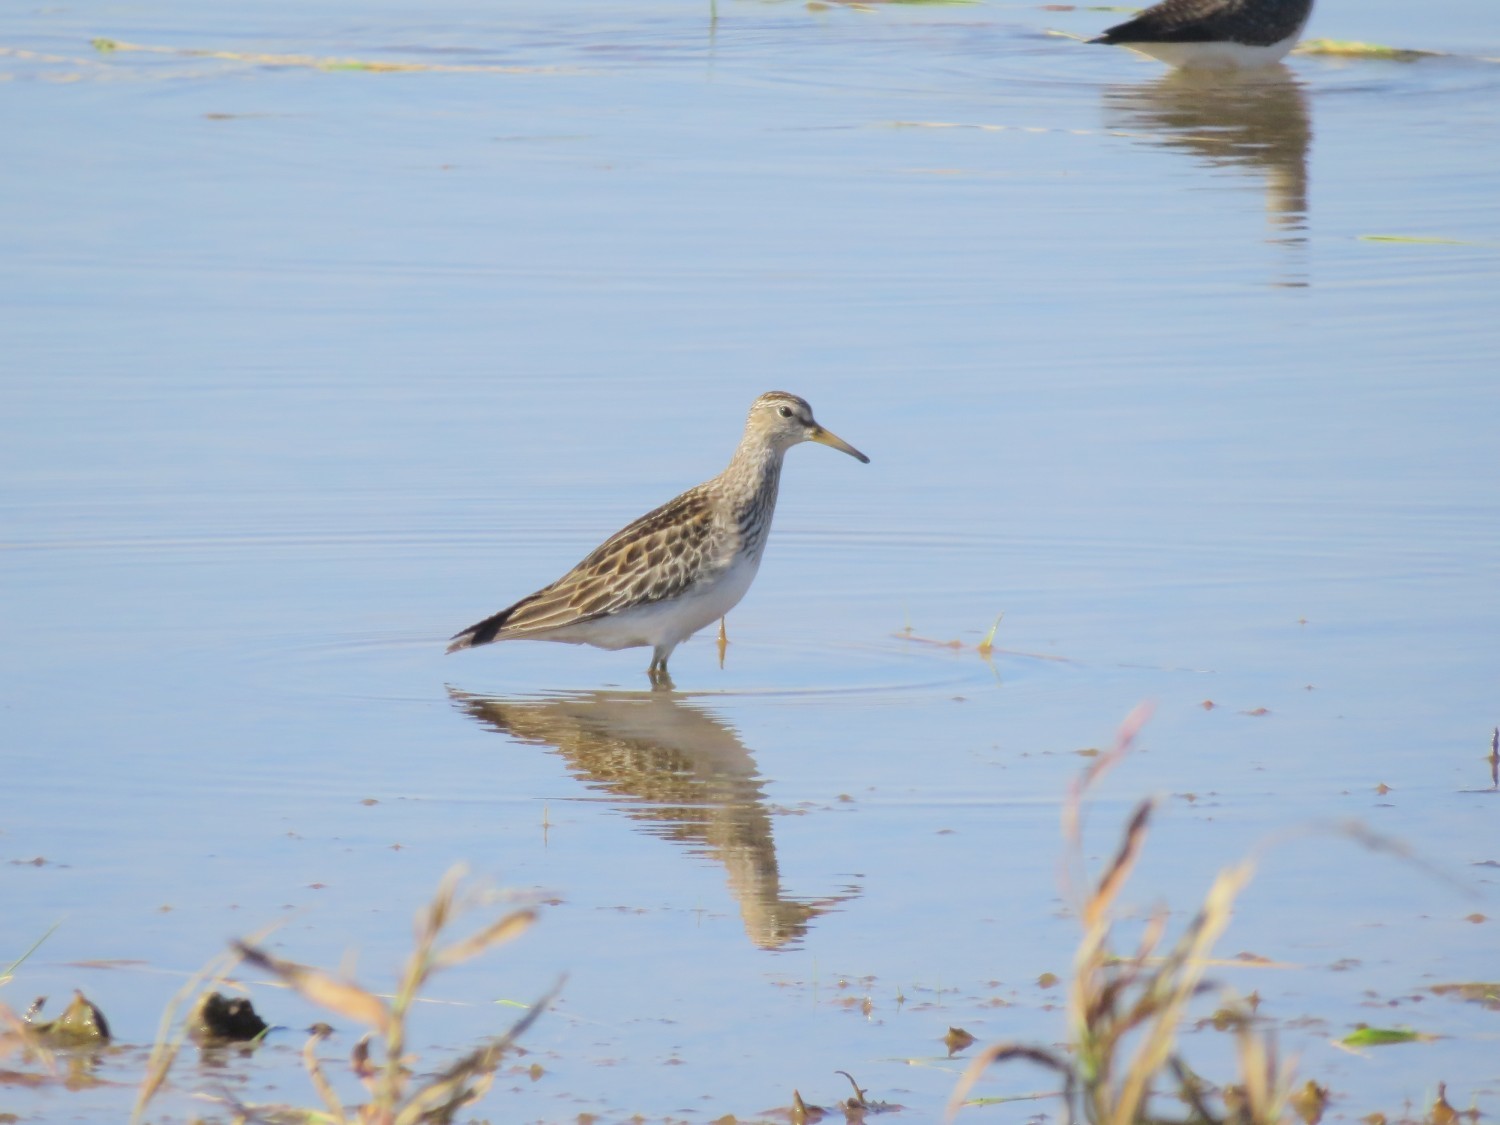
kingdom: Animalia
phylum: Chordata
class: Aves
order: Charadriiformes
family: Scolopacidae
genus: Calidris
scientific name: Calidris melanotos
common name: Pectoral sandpiper
